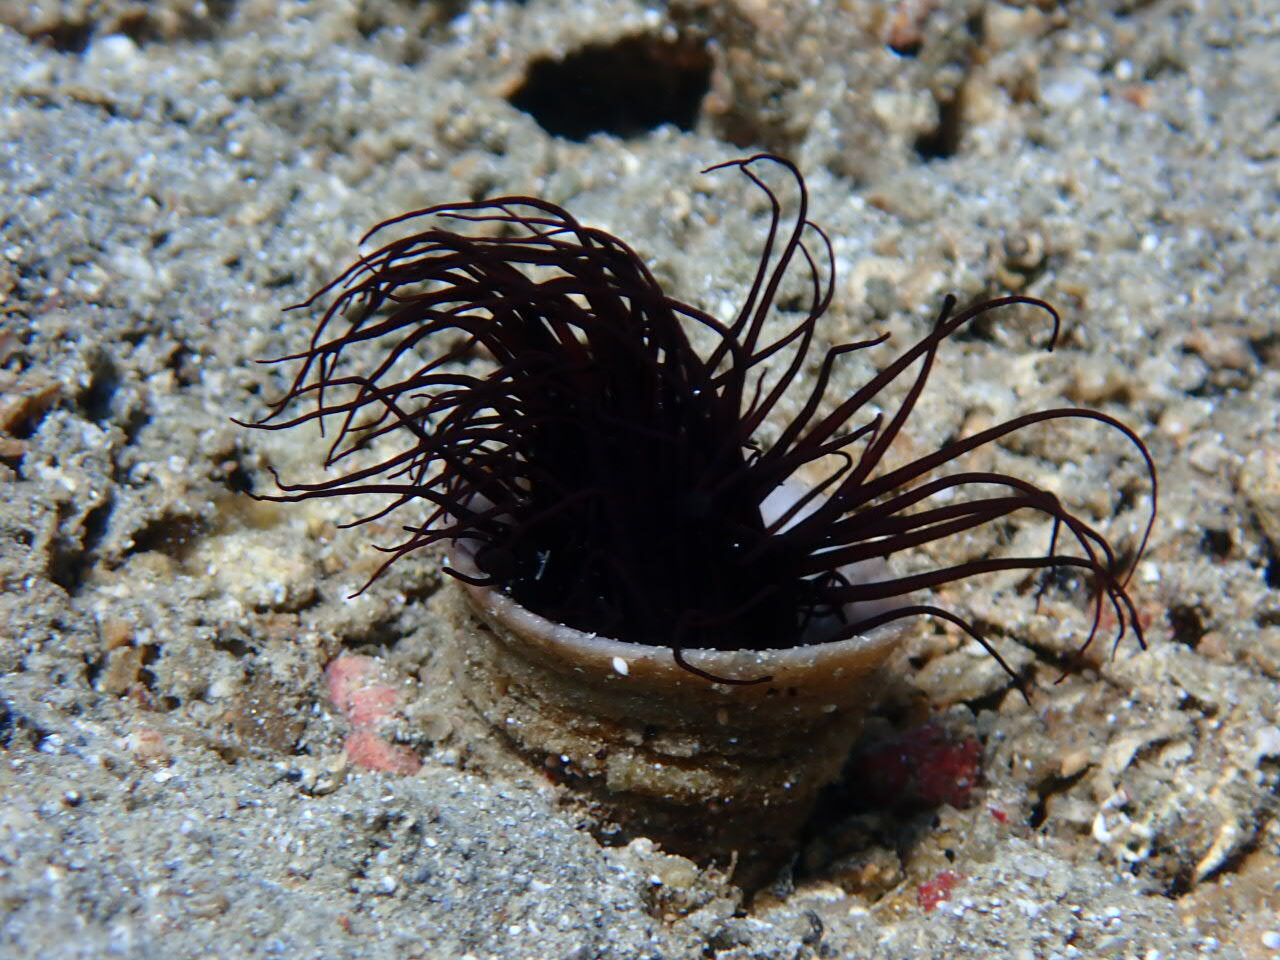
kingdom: Animalia
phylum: Cnidaria
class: Anthozoa
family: Cerianthidae
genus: Pachycerianthus
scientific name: Pachycerianthus solitarius
